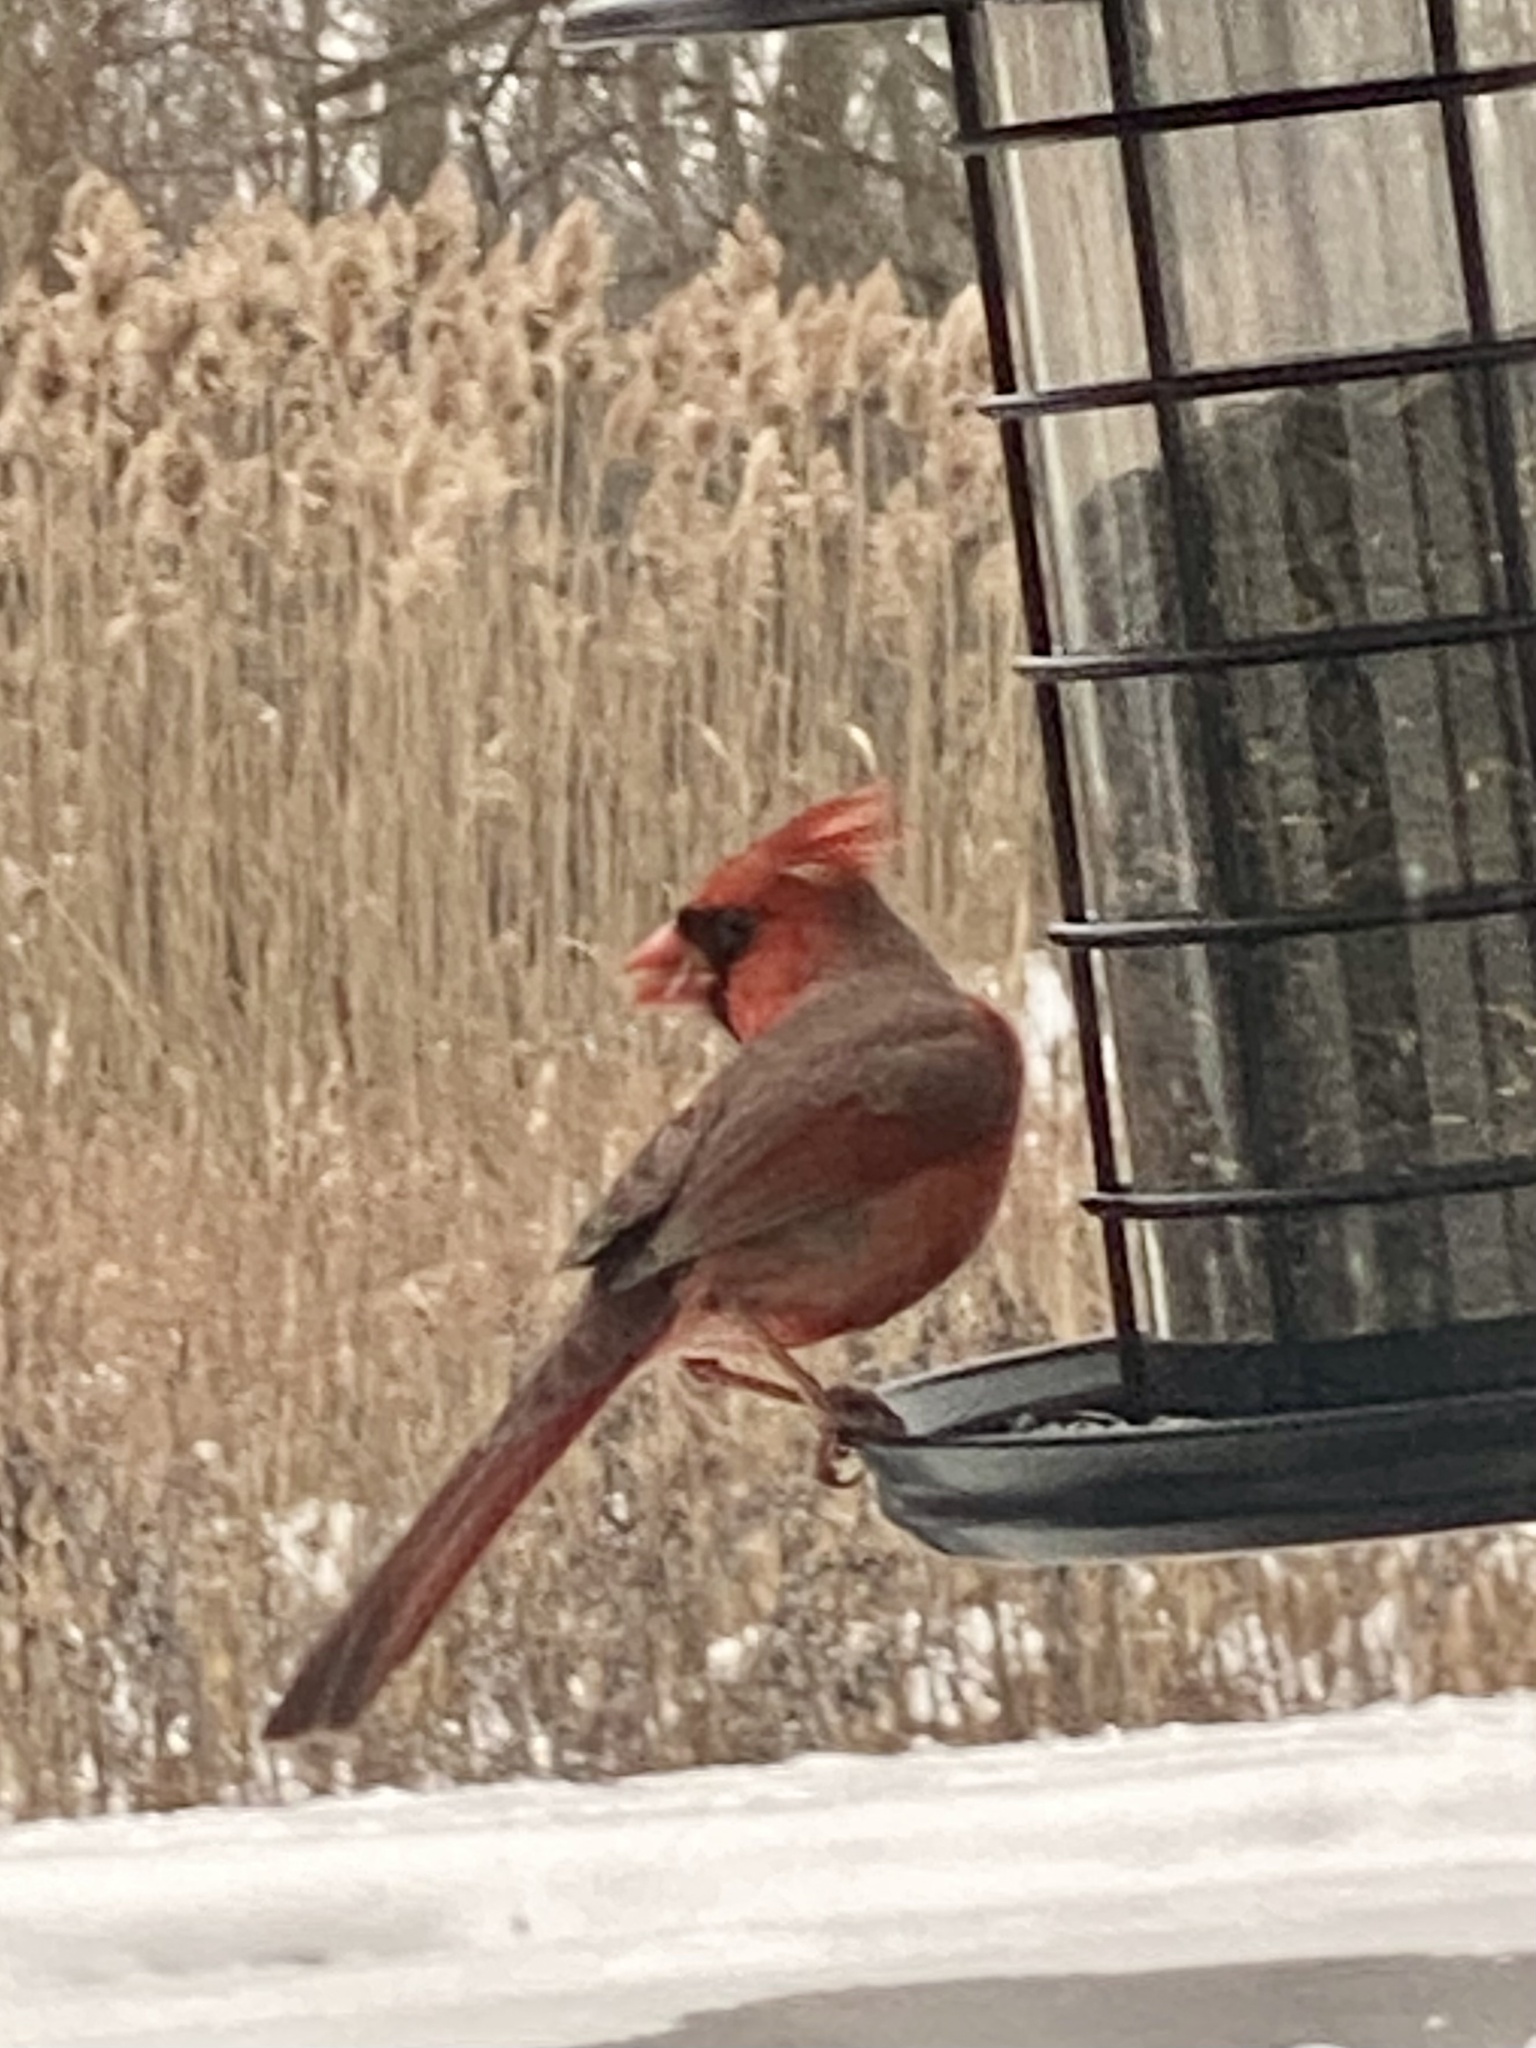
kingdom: Animalia
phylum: Chordata
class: Aves
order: Passeriformes
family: Cardinalidae
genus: Cardinalis
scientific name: Cardinalis cardinalis
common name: Northern cardinal
